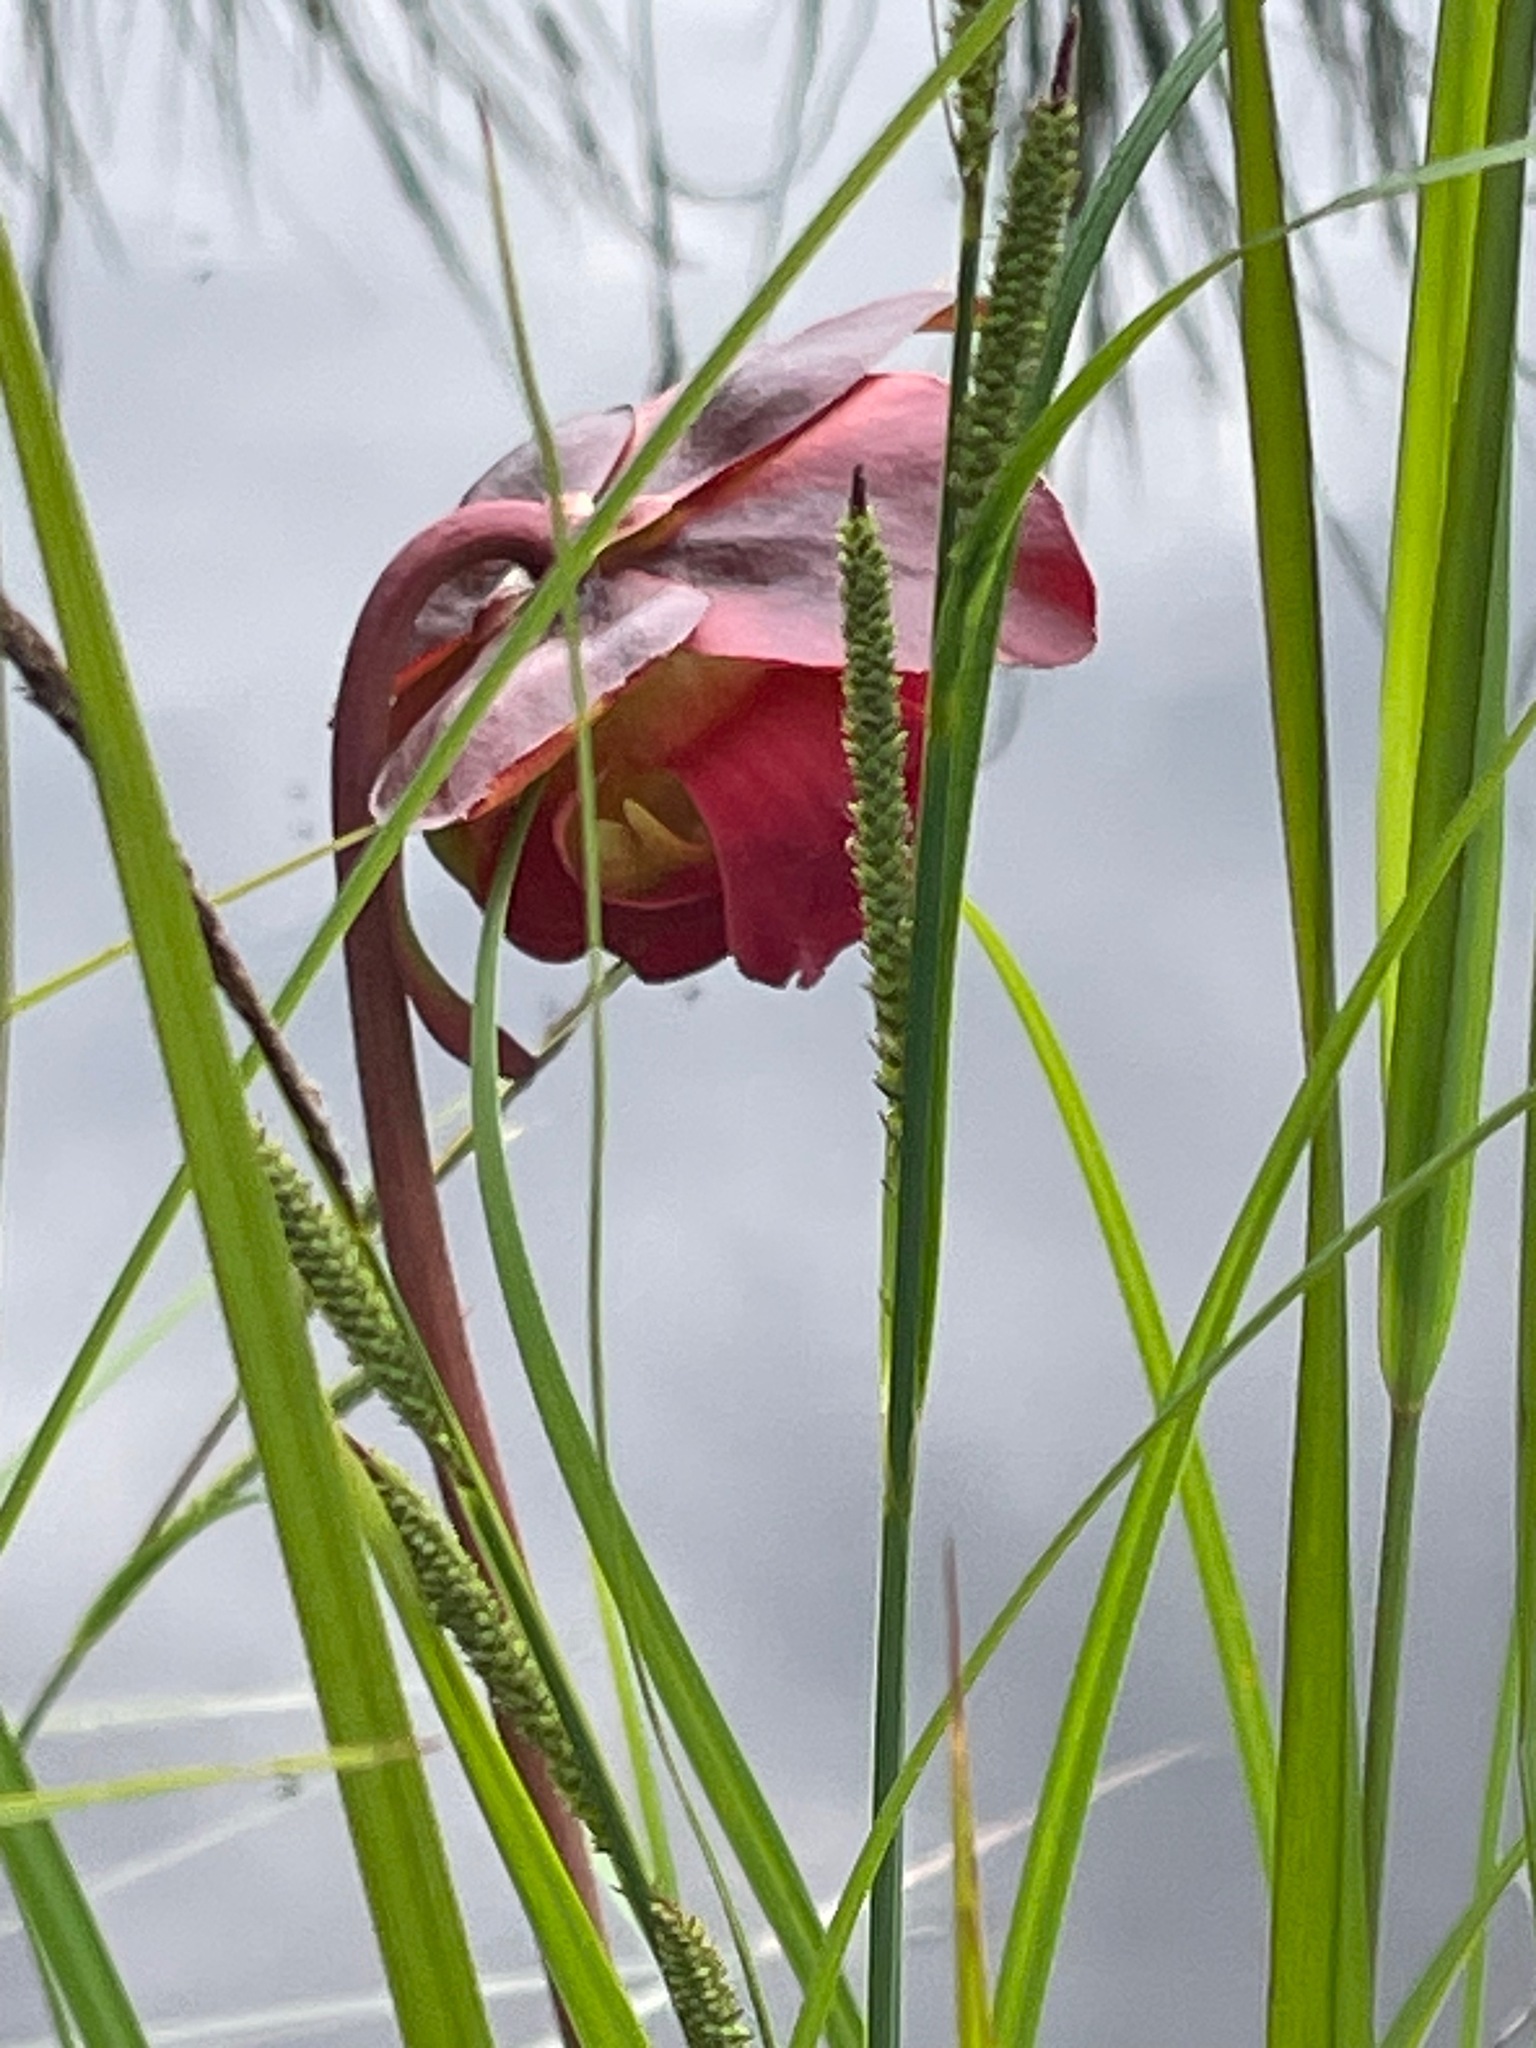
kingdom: Plantae
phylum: Tracheophyta
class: Magnoliopsida
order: Ericales
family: Sarraceniaceae
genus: Sarracenia
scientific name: Sarracenia purpurea
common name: Pitcherplant
